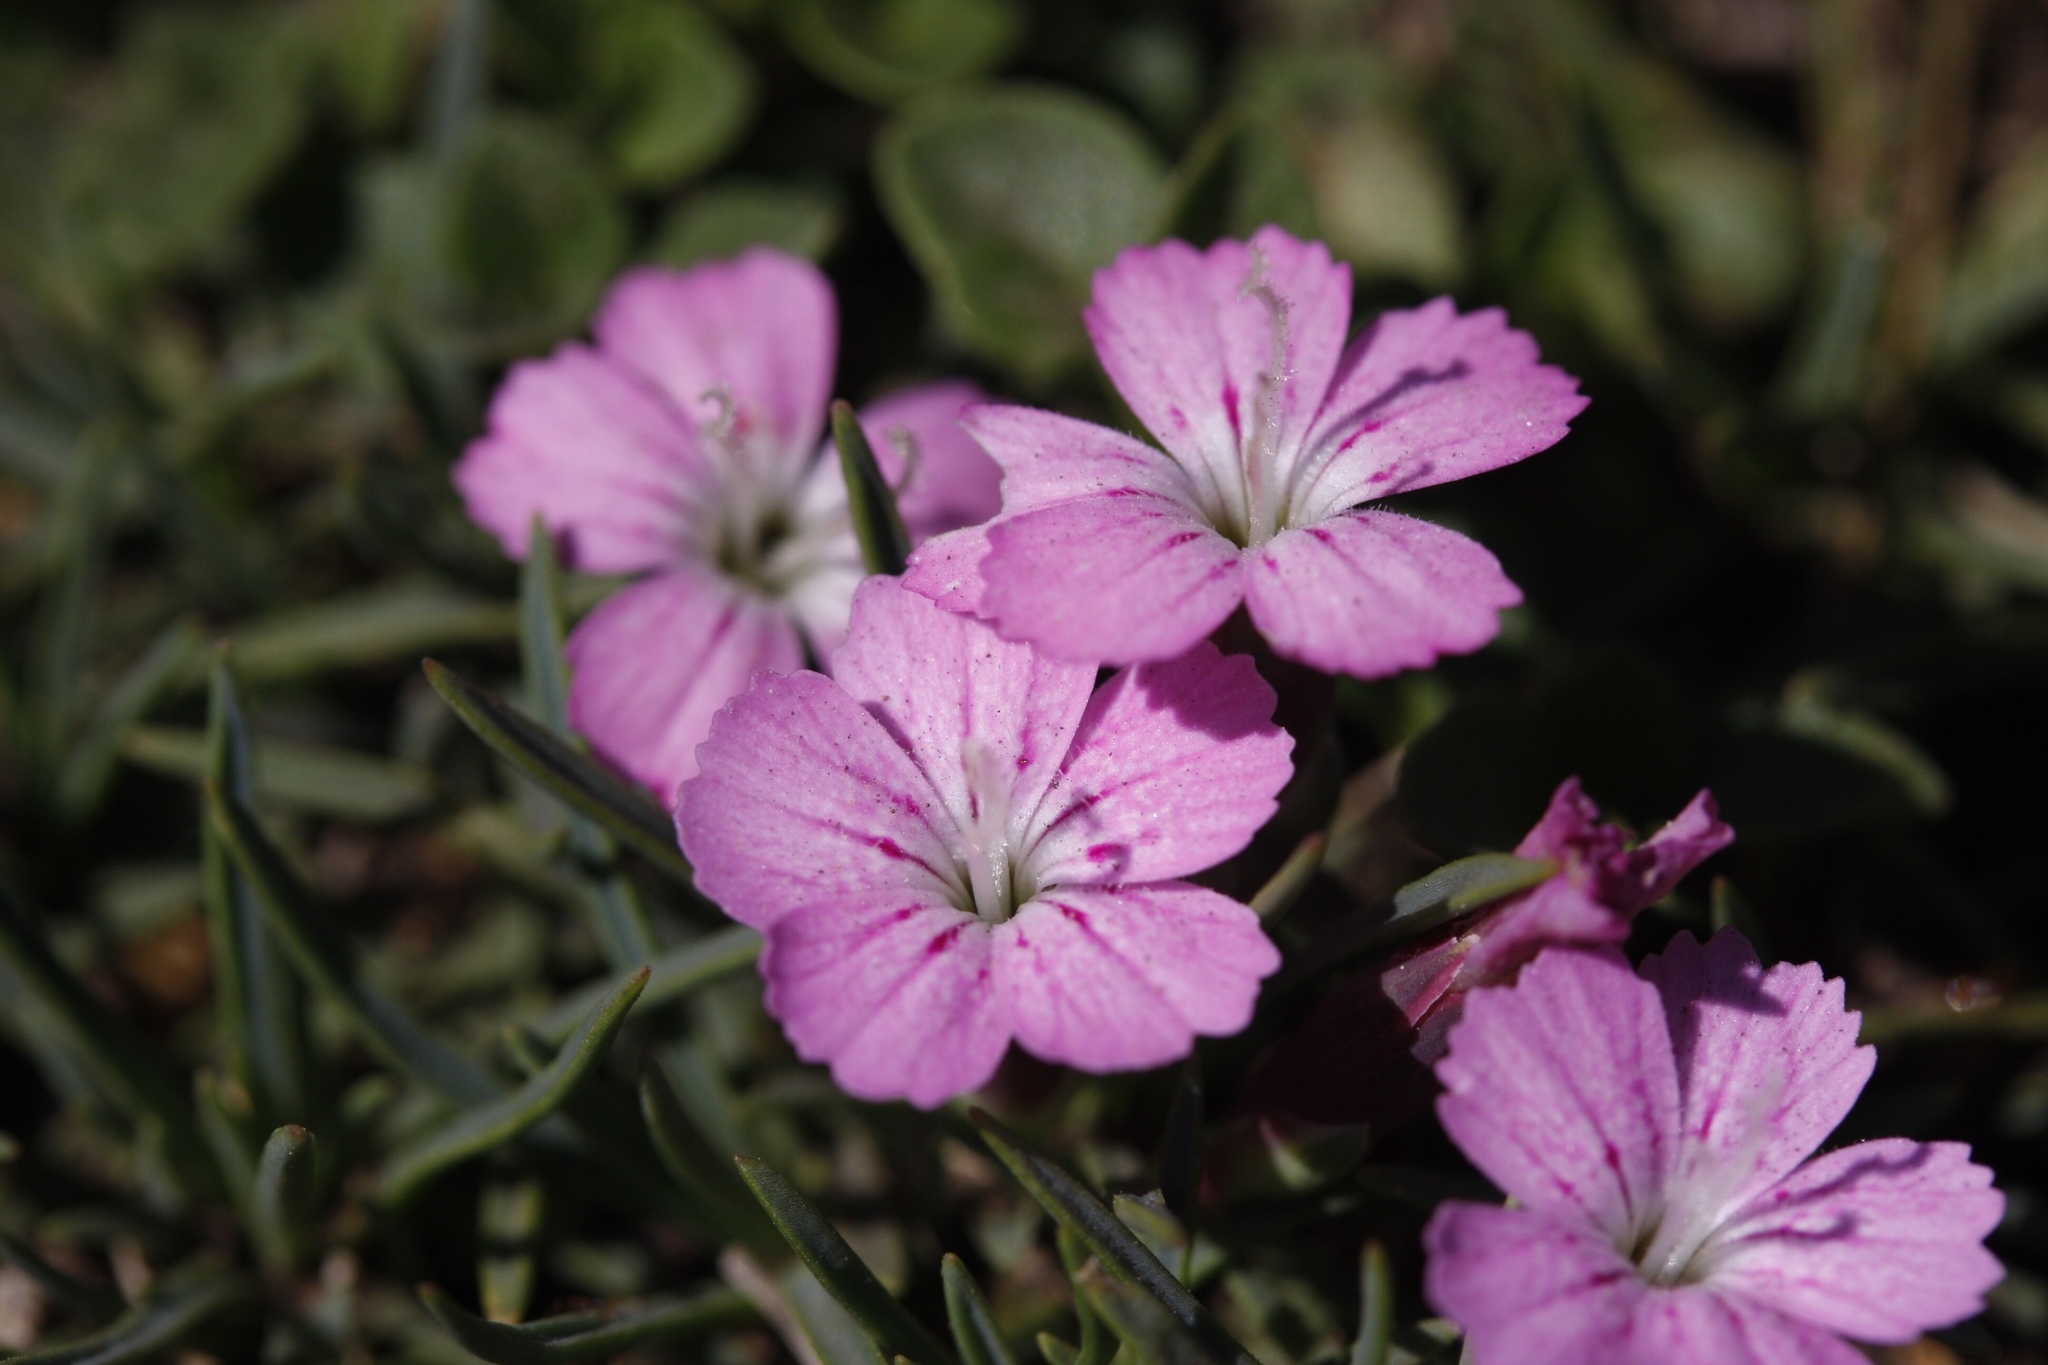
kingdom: Plantae
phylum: Tracheophyta
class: Magnoliopsida
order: Caryophyllales
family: Caryophyllaceae
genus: Dianthus
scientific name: Dianthus microlepis
